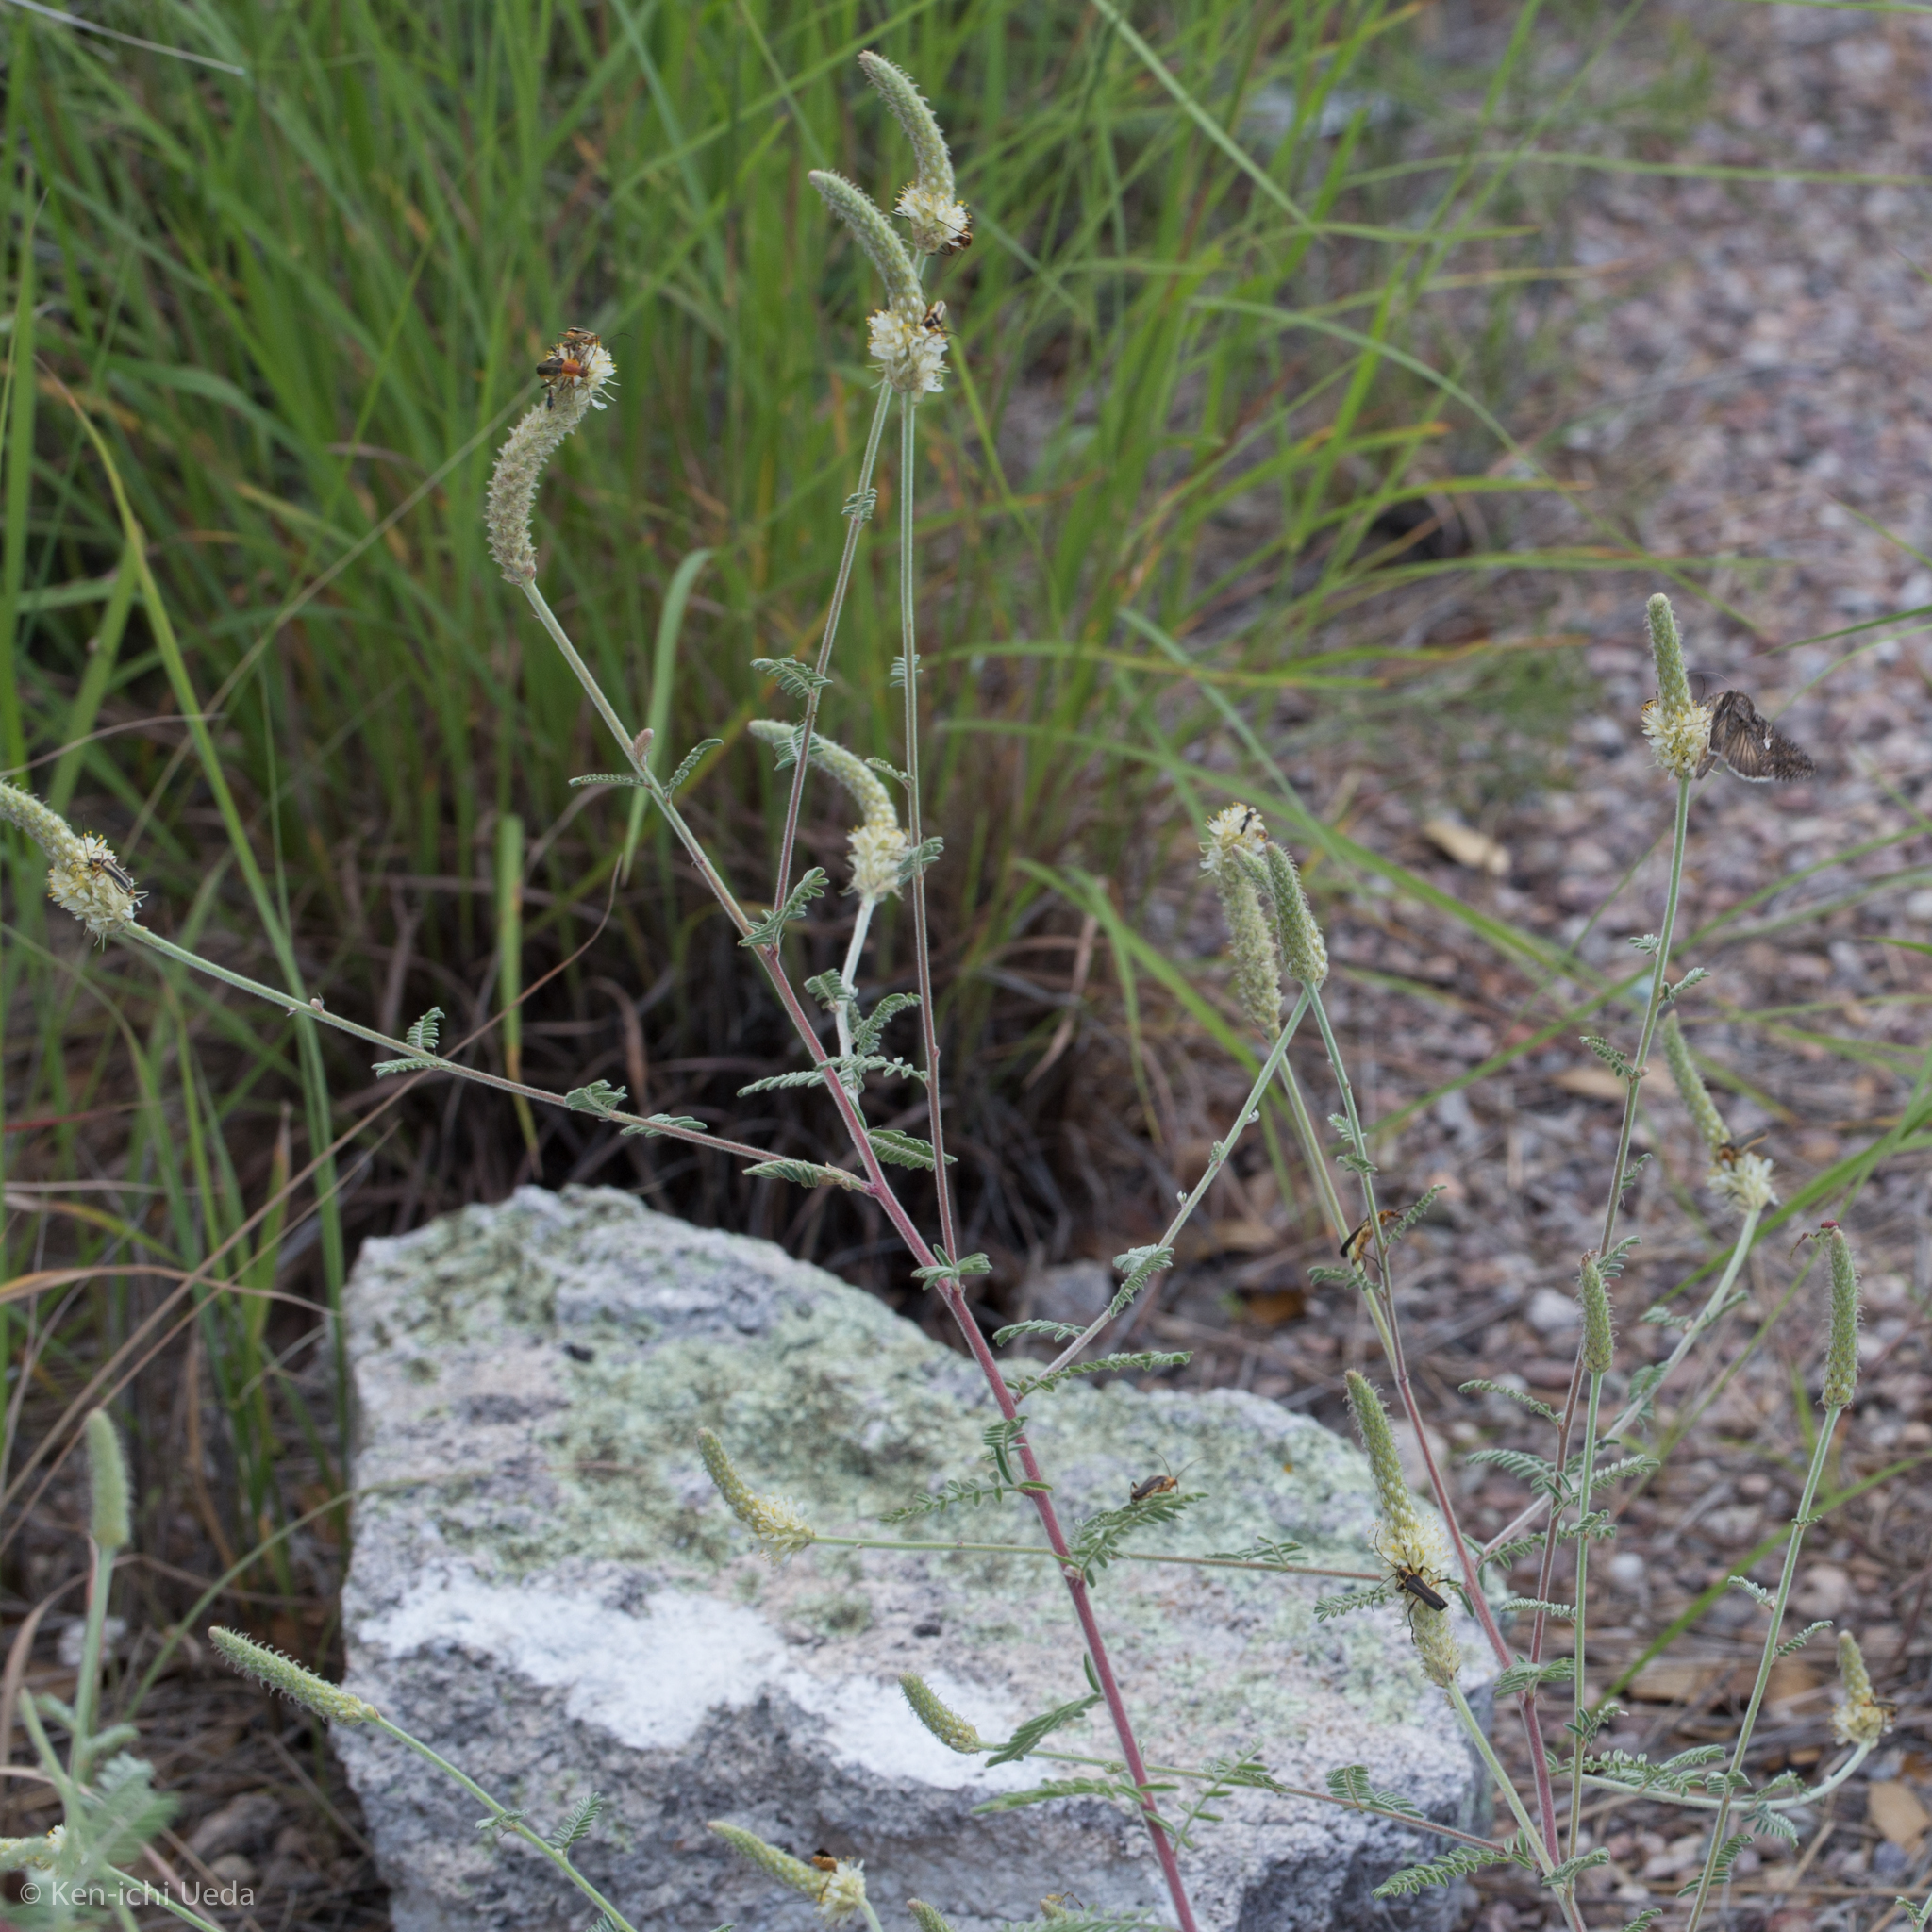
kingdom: Plantae
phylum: Tracheophyta
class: Magnoliopsida
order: Fabales
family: Fabaceae
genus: Dalea
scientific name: Dalea albiflora
